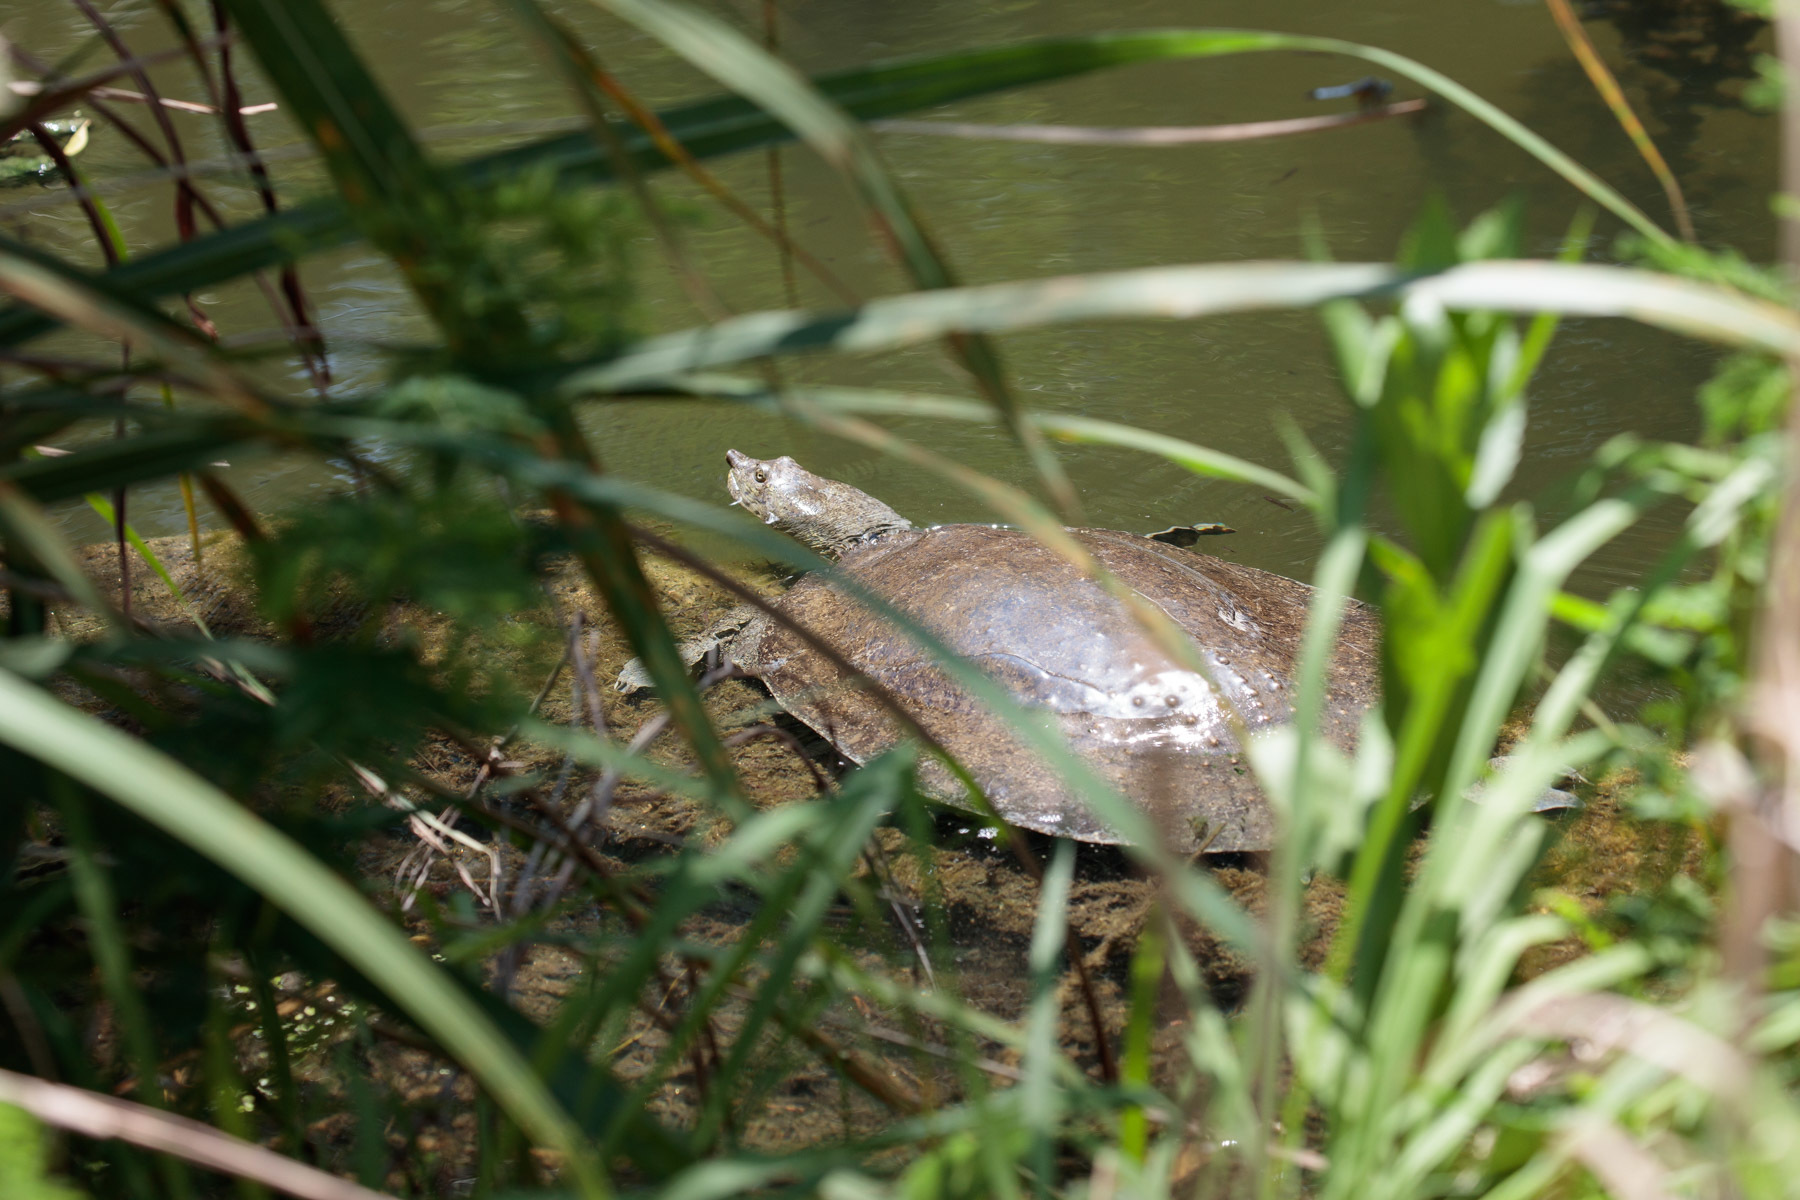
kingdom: Animalia
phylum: Chordata
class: Testudines
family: Trionychidae
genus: Apalone
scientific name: Apalone spinifera
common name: Spiny softshell turtle
